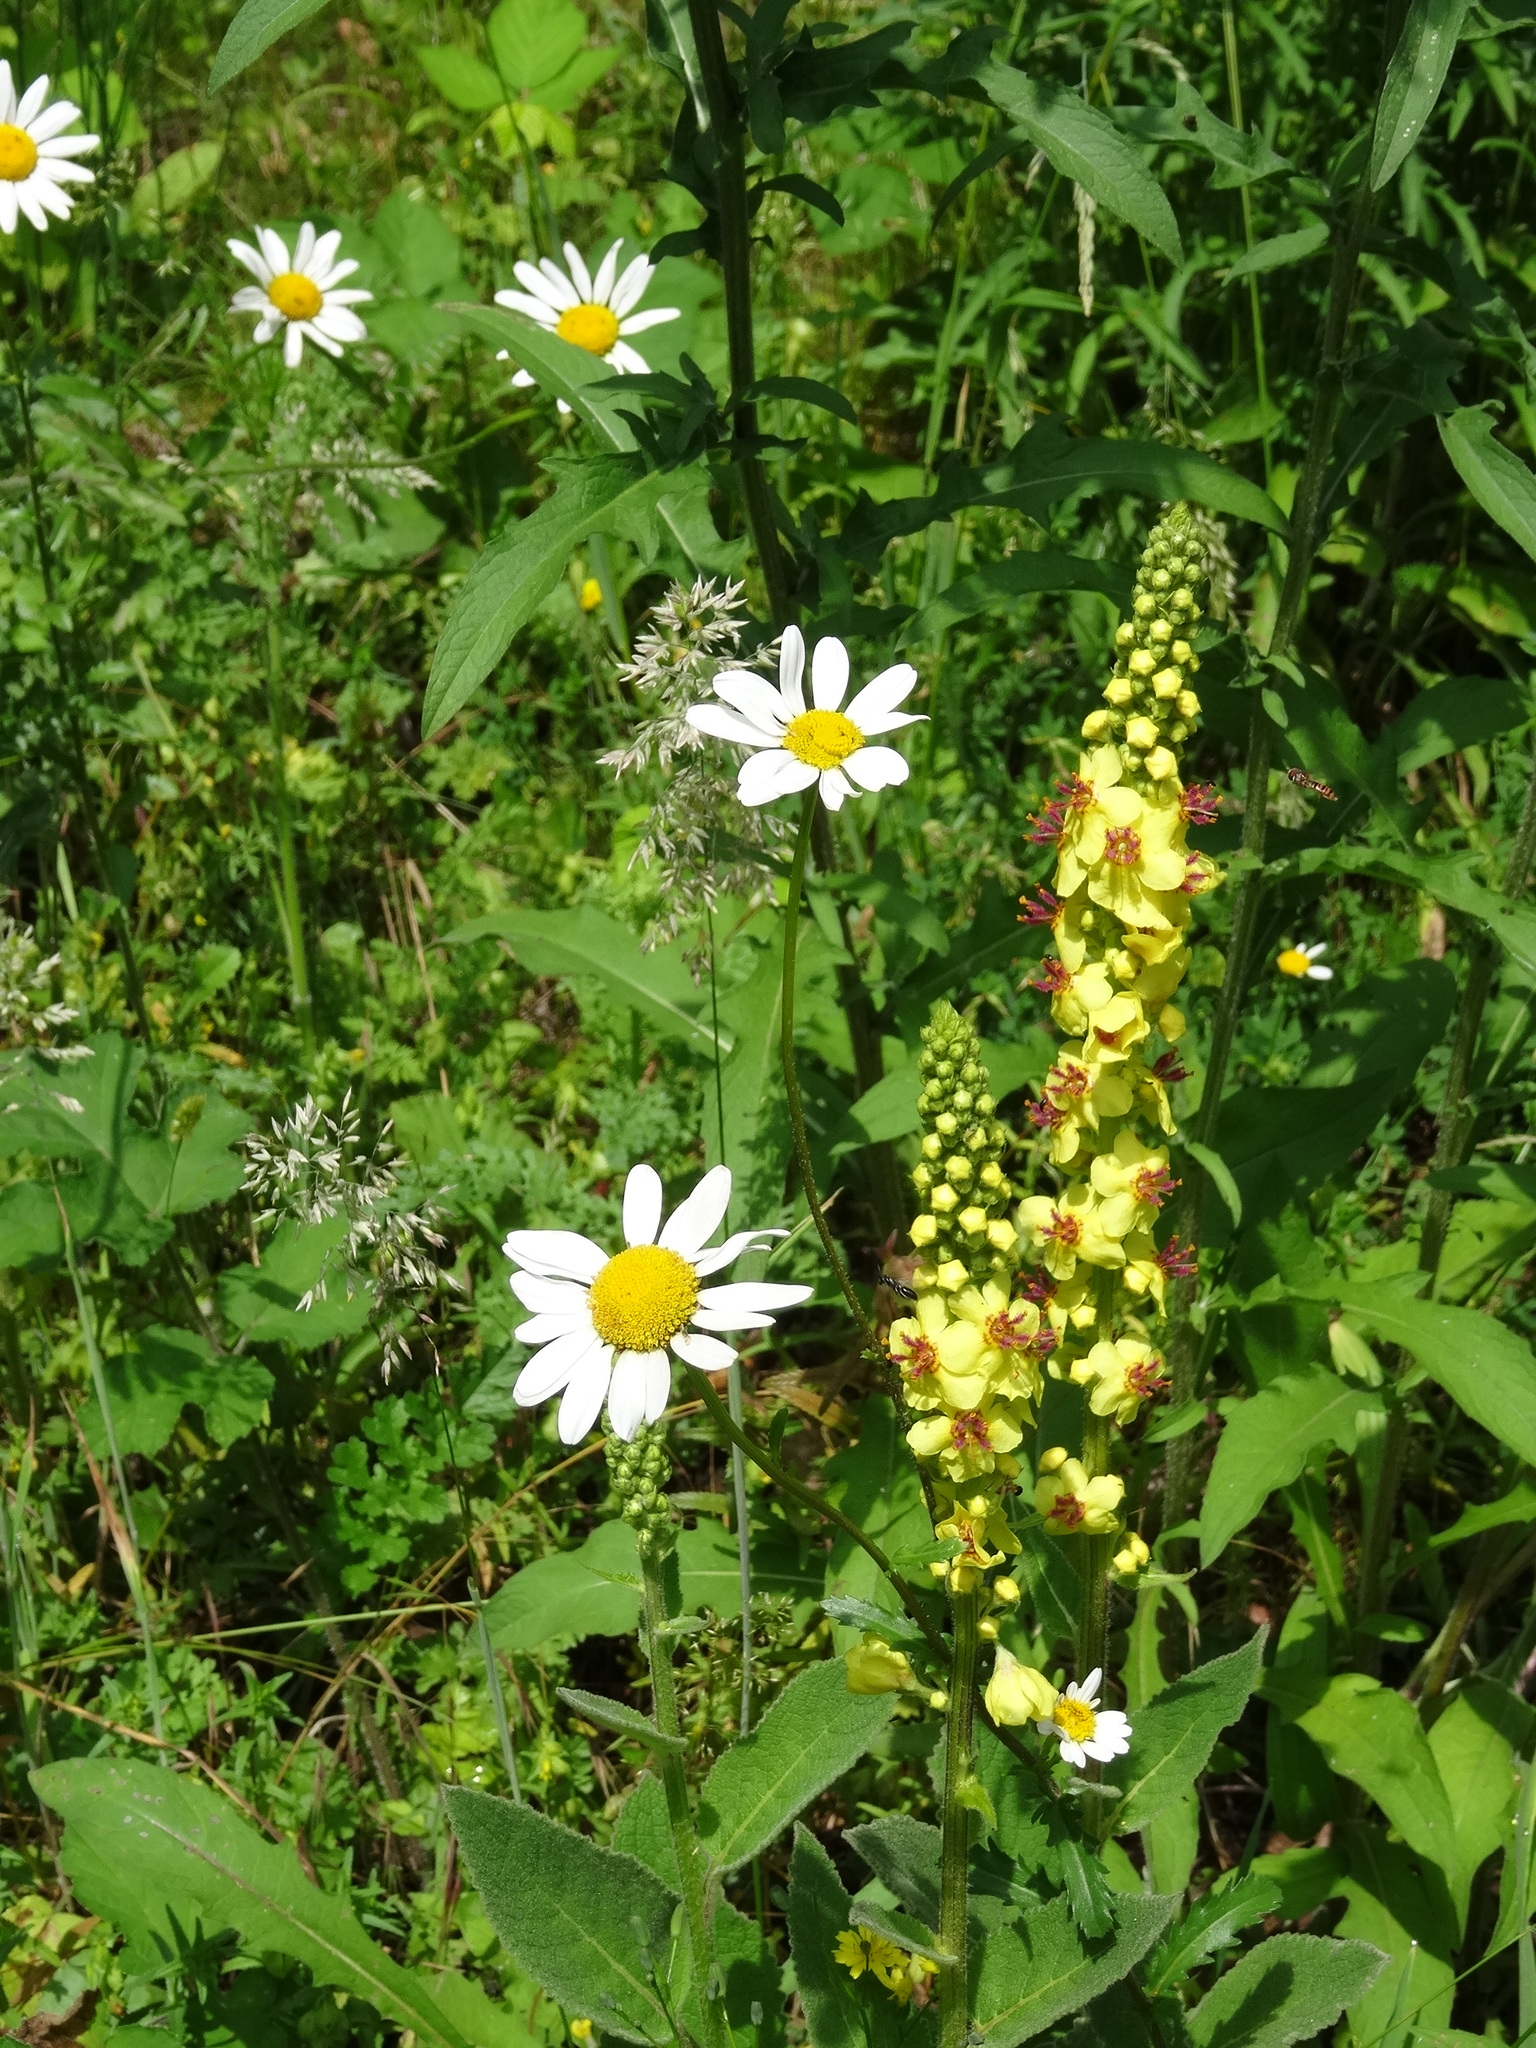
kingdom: Plantae
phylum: Tracheophyta
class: Magnoliopsida
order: Lamiales
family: Scrophulariaceae
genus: Verbascum
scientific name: Verbascum nigrum
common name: Dark mullein
